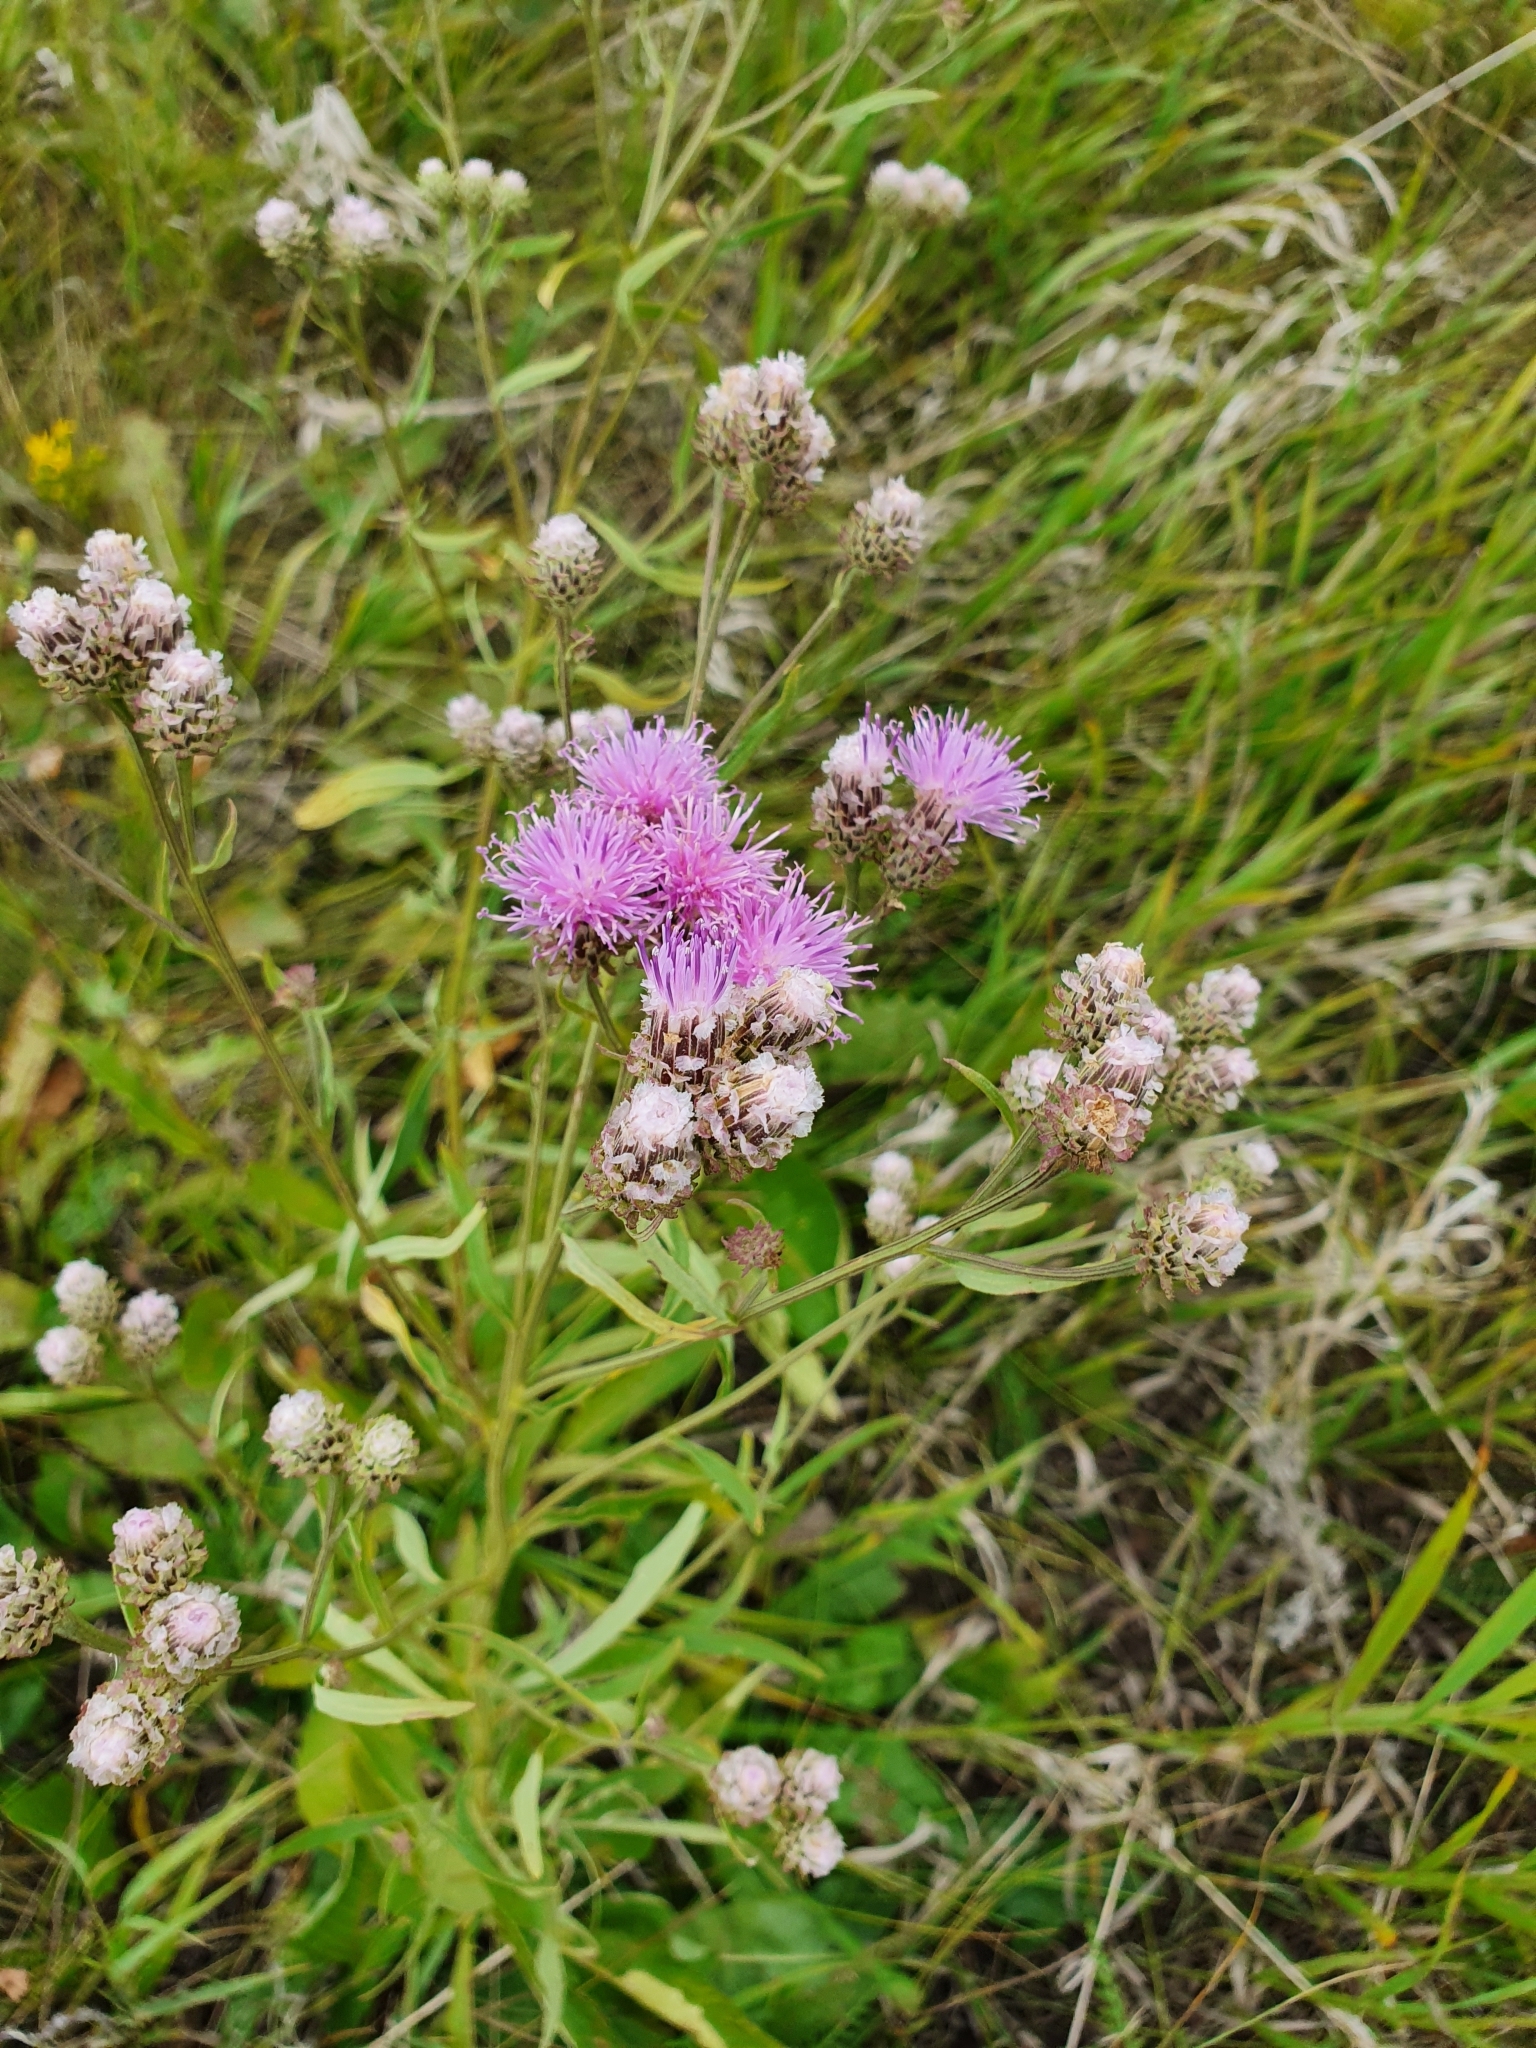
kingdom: Plantae
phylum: Tracheophyta
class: Magnoliopsida
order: Asterales
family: Asteraceae
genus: Saussurea
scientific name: Saussurea amara
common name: Alberta sawwort
